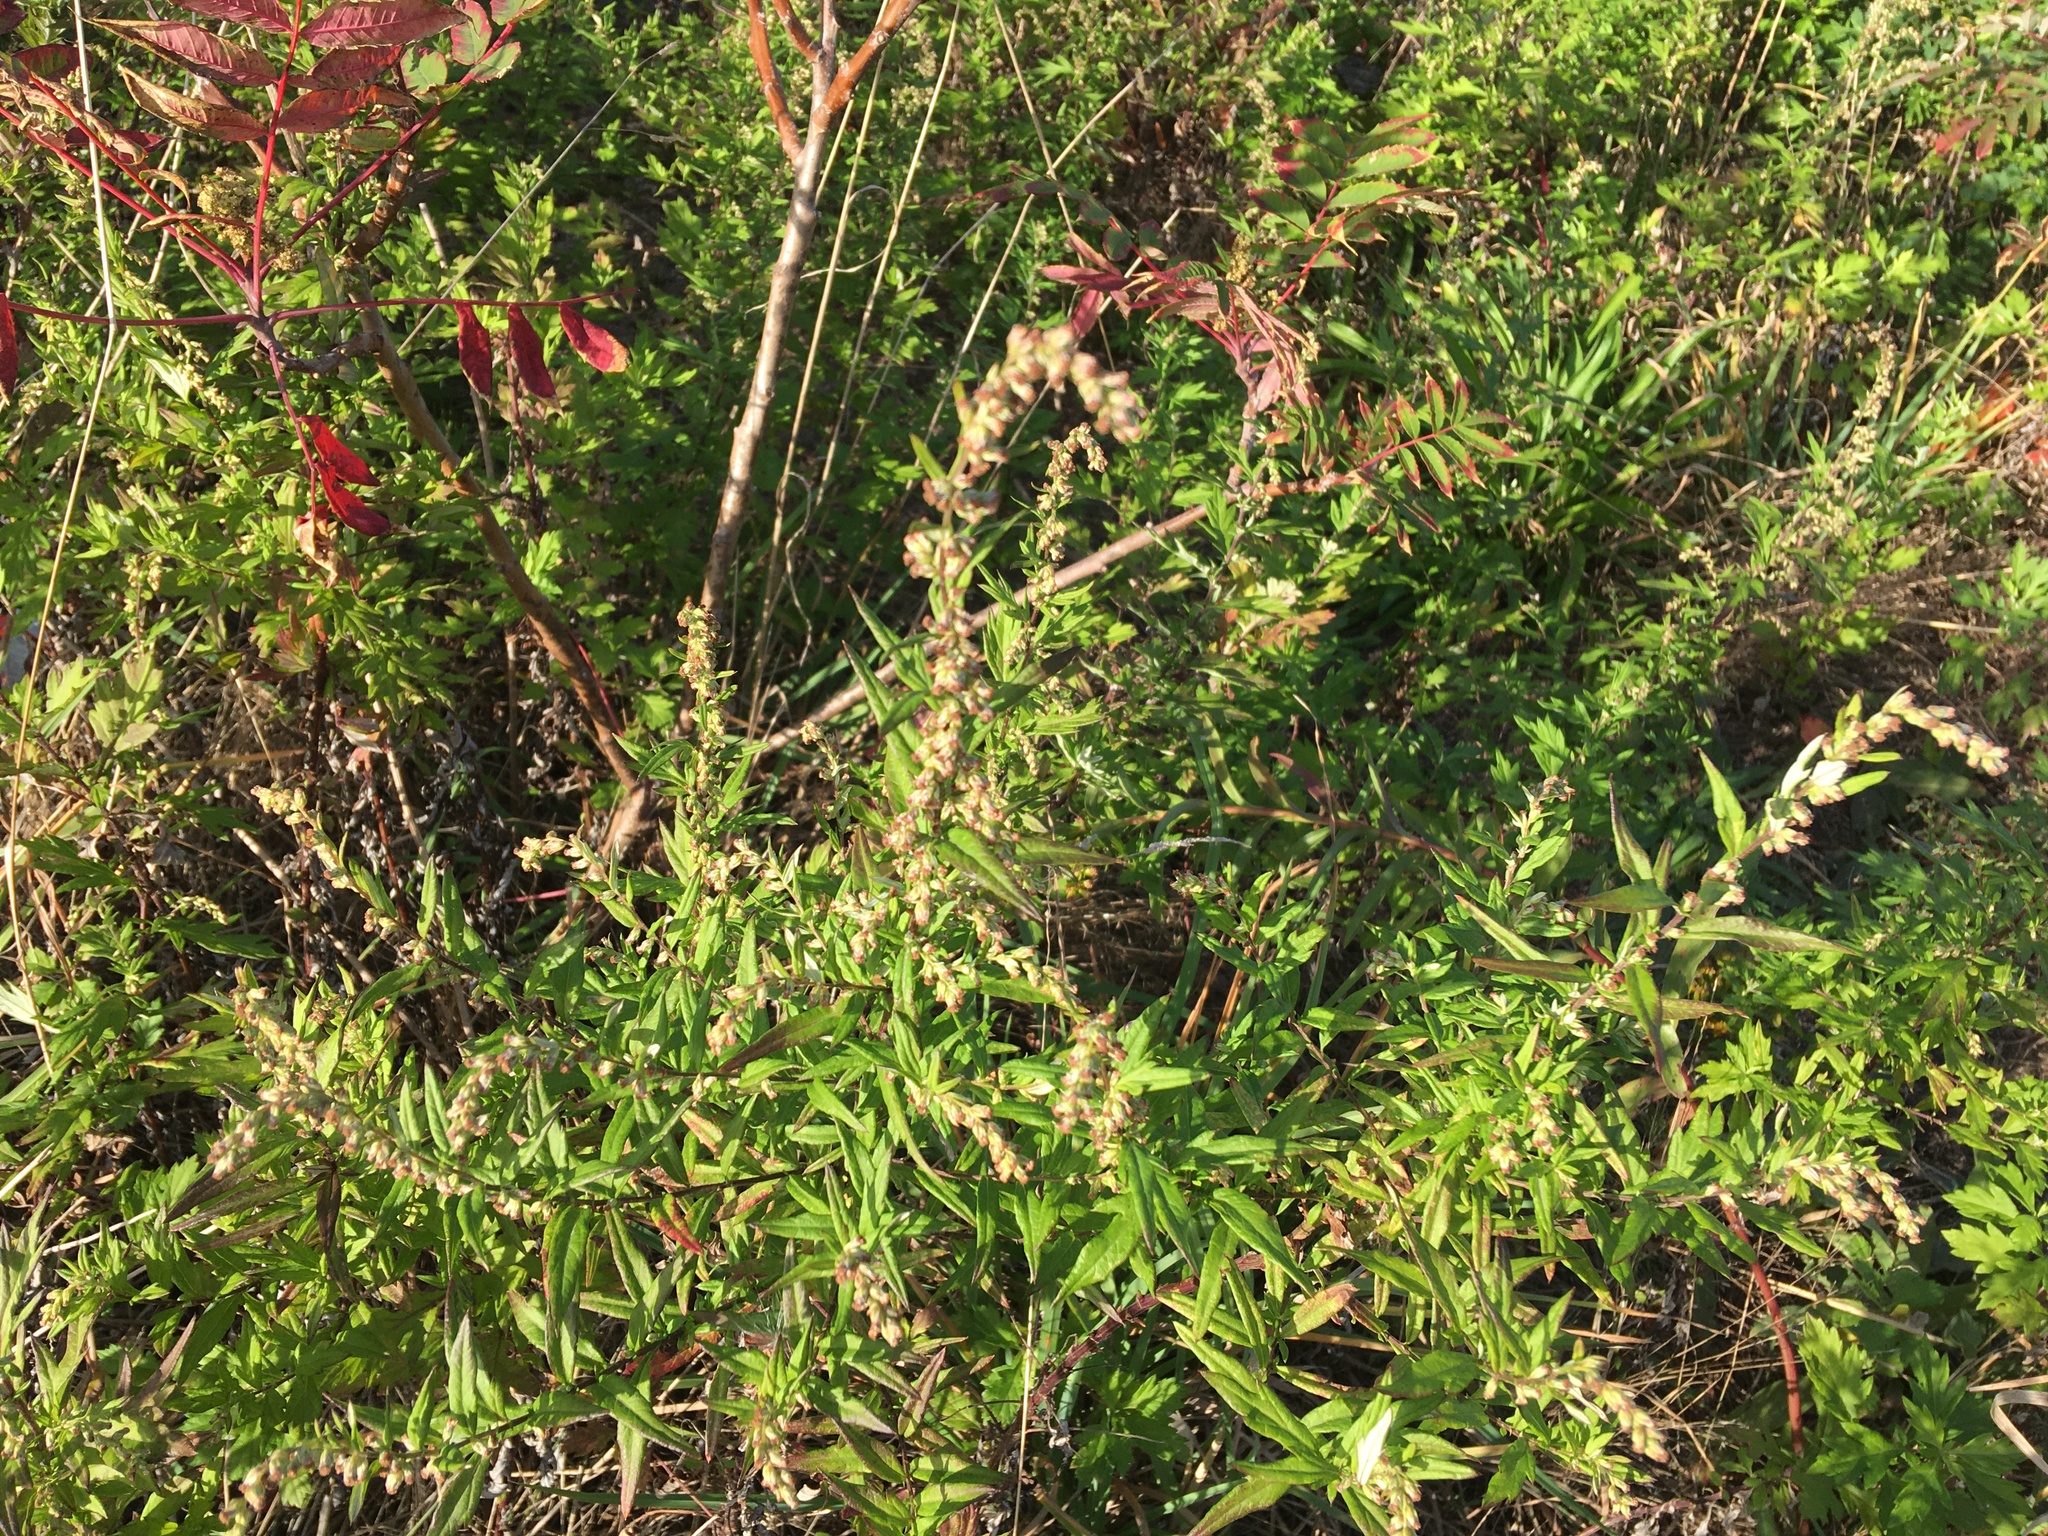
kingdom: Plantae
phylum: Tracheophyta
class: Magnoliopsida
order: Asterales
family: Asteraceae
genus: Artemisia
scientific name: Artemisia vulgaris
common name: Mugwort
